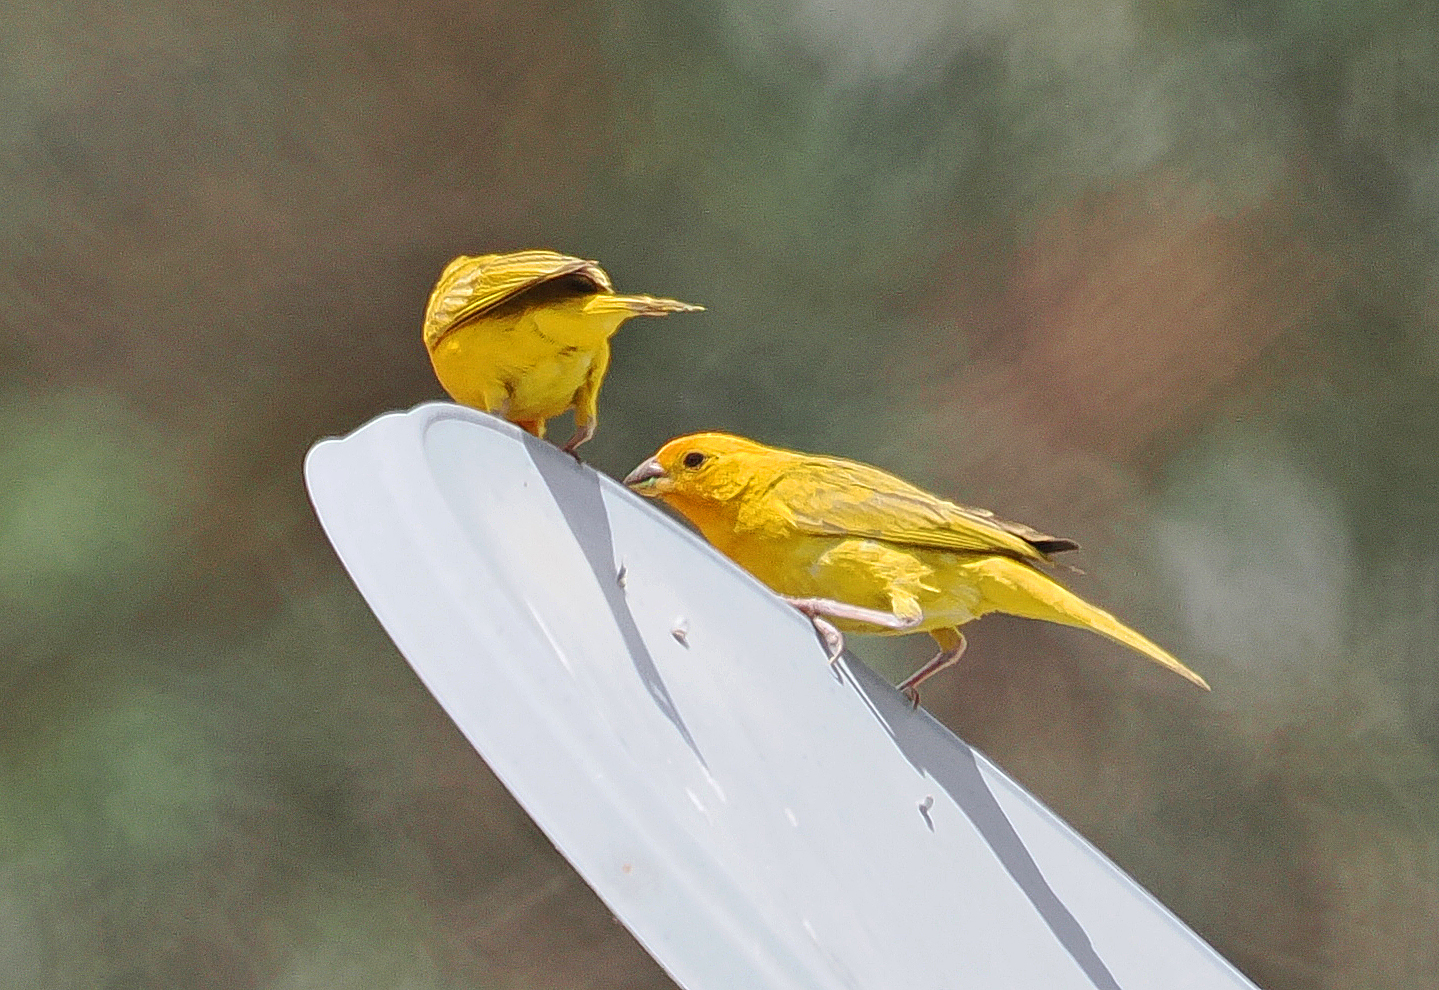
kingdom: Animalia
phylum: Chordata
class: Aves
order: Passeriformes
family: Thraupidae
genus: Sicalis
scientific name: Sicalis flaveola
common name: Saffron finch
